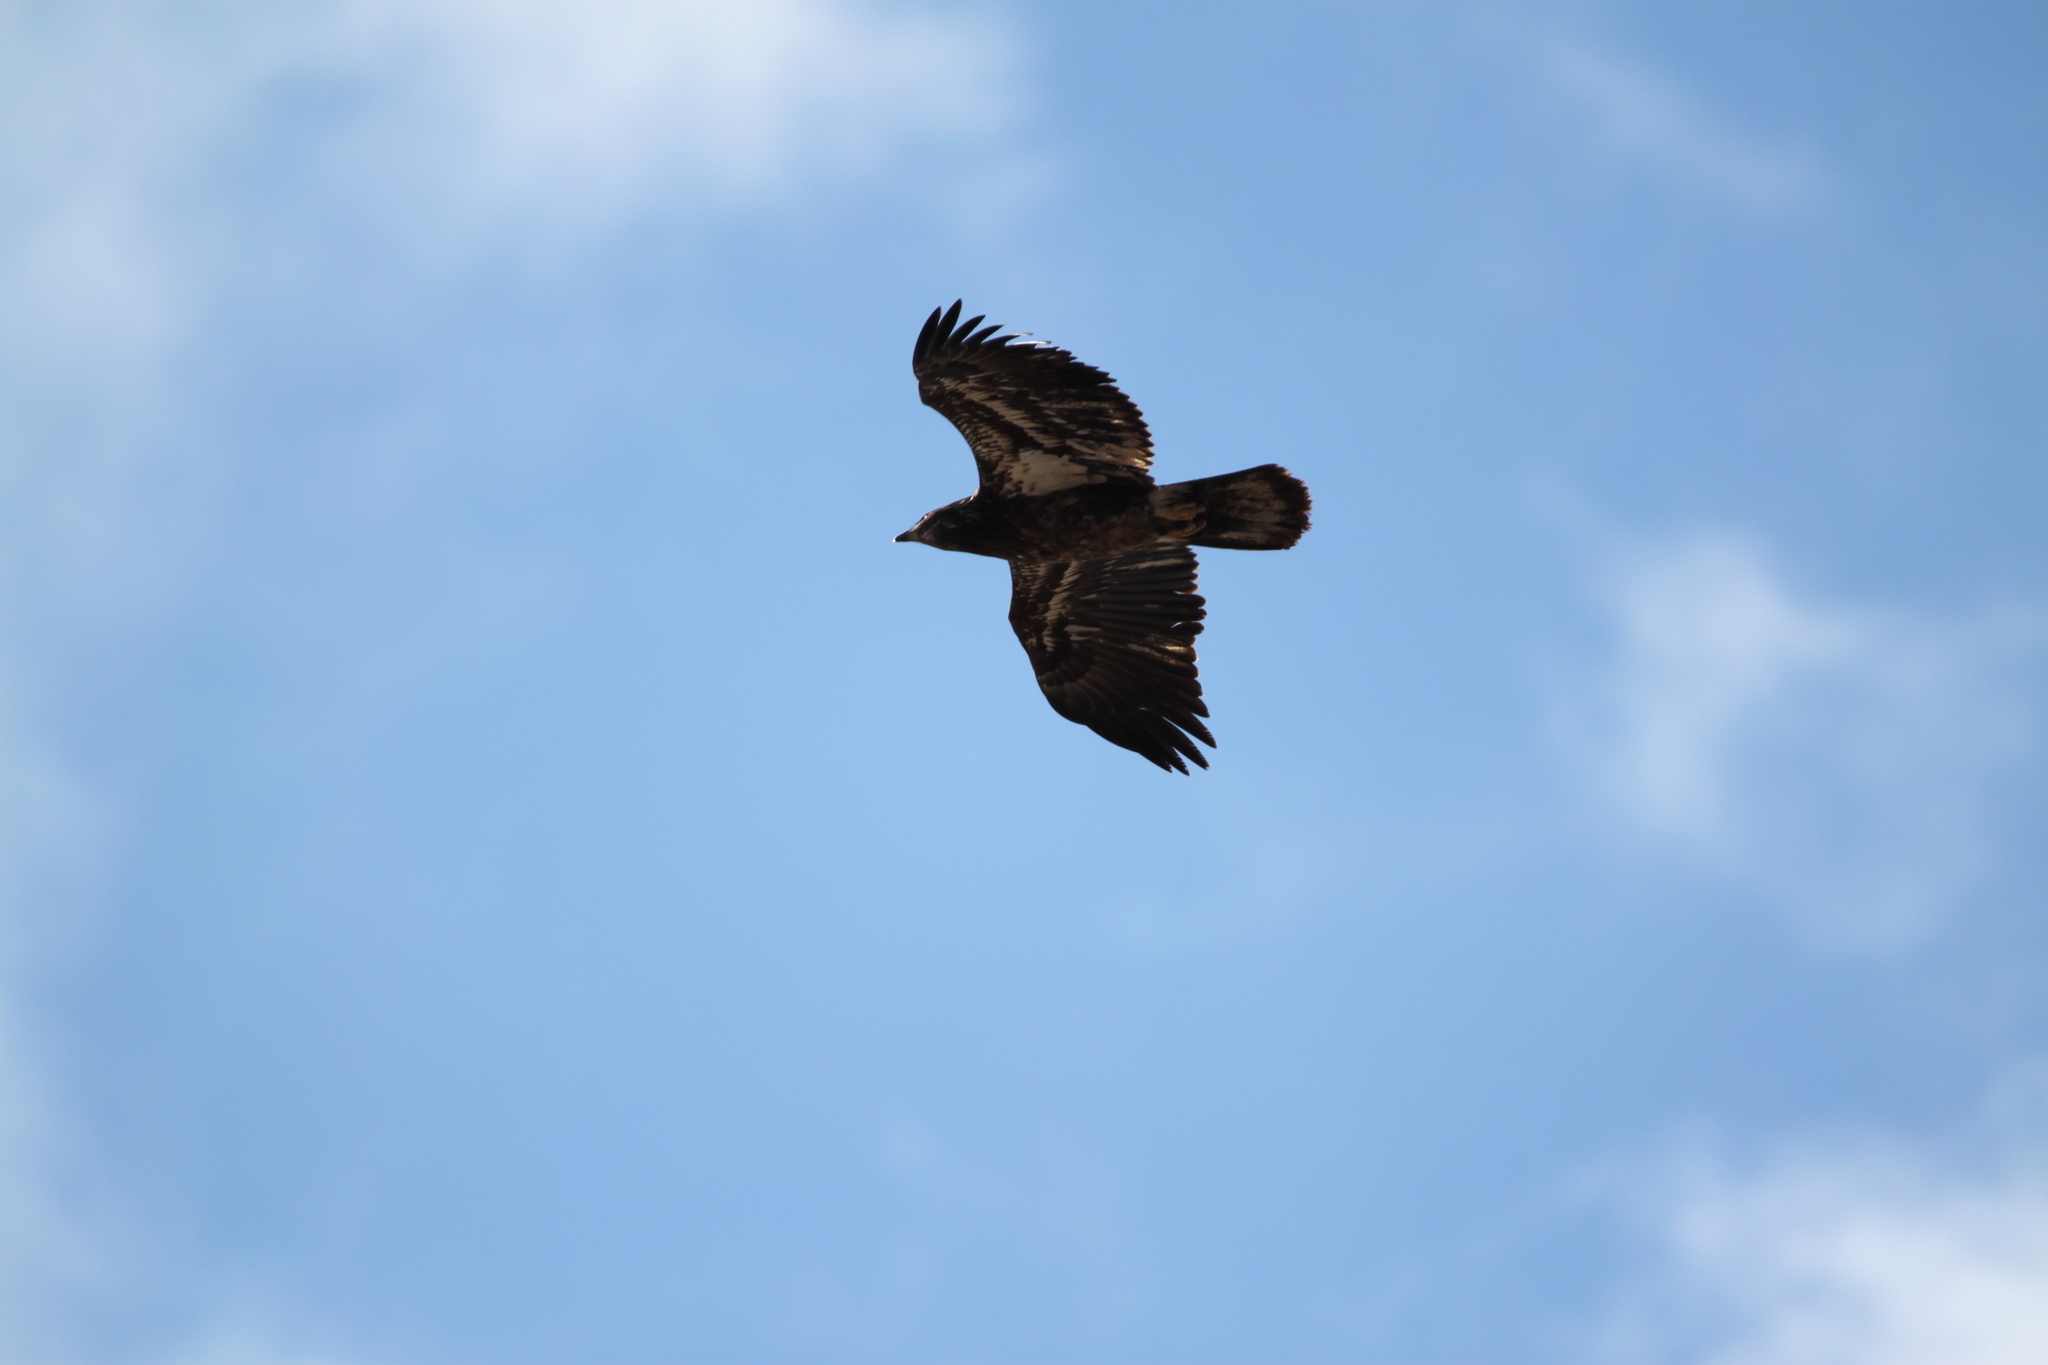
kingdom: Animalia
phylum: Chordata
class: Aves
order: Accipitriformes
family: Accipitridae
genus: Haliaeetus
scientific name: Haliaeetus leucocephalus
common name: Bald eagle
